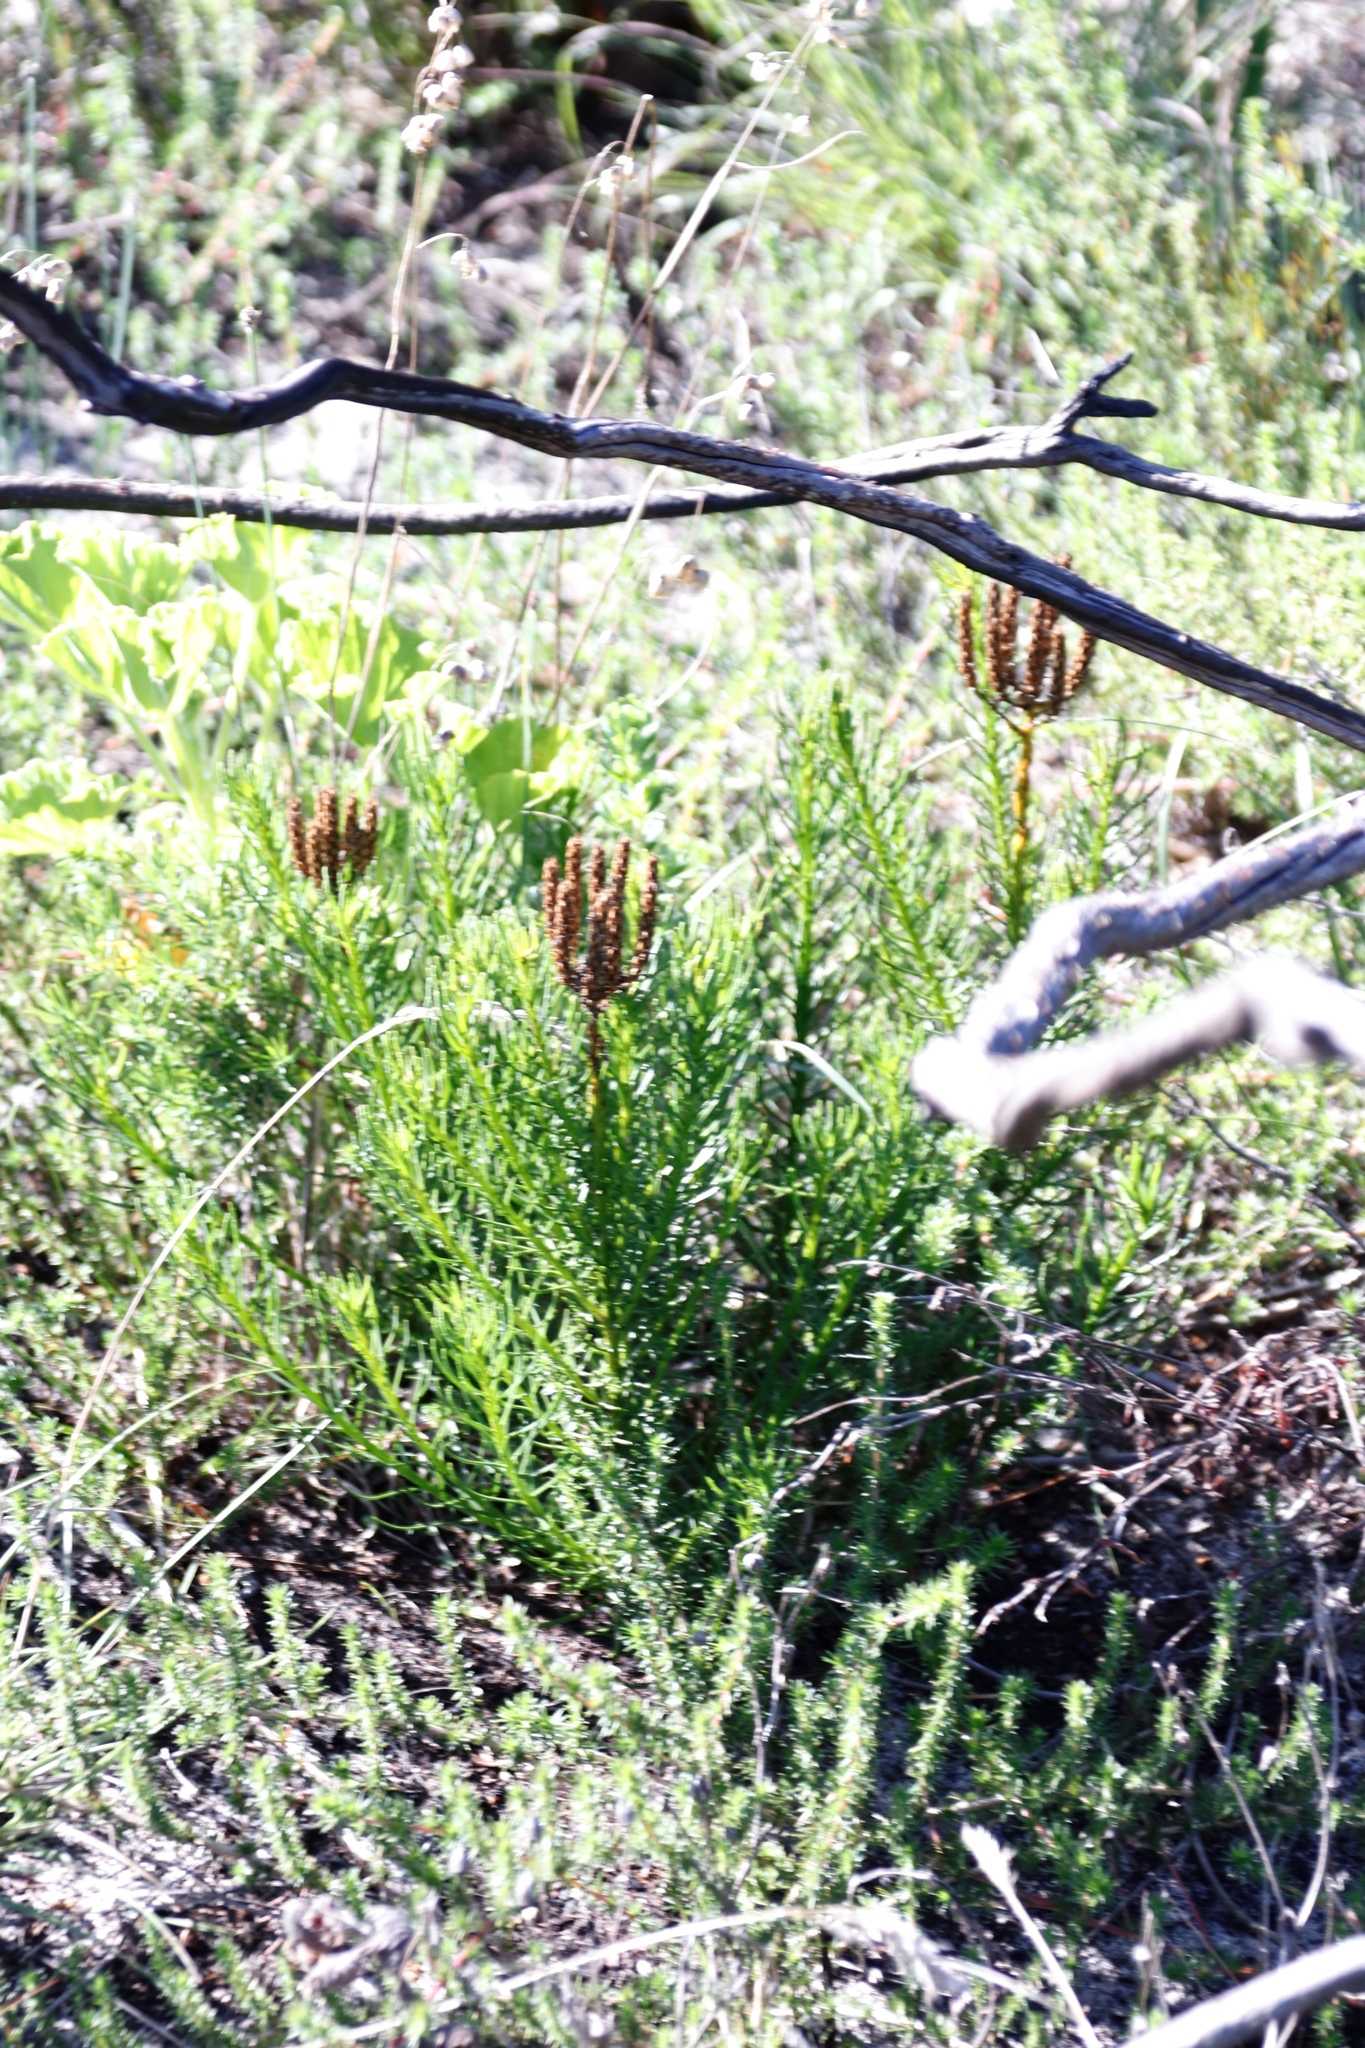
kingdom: Plantae
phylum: Tracheophyta
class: Magnoliopsida
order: Lamiales
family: Scrophulariaceae
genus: Pseudoselago
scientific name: Pseudoselago spuria
